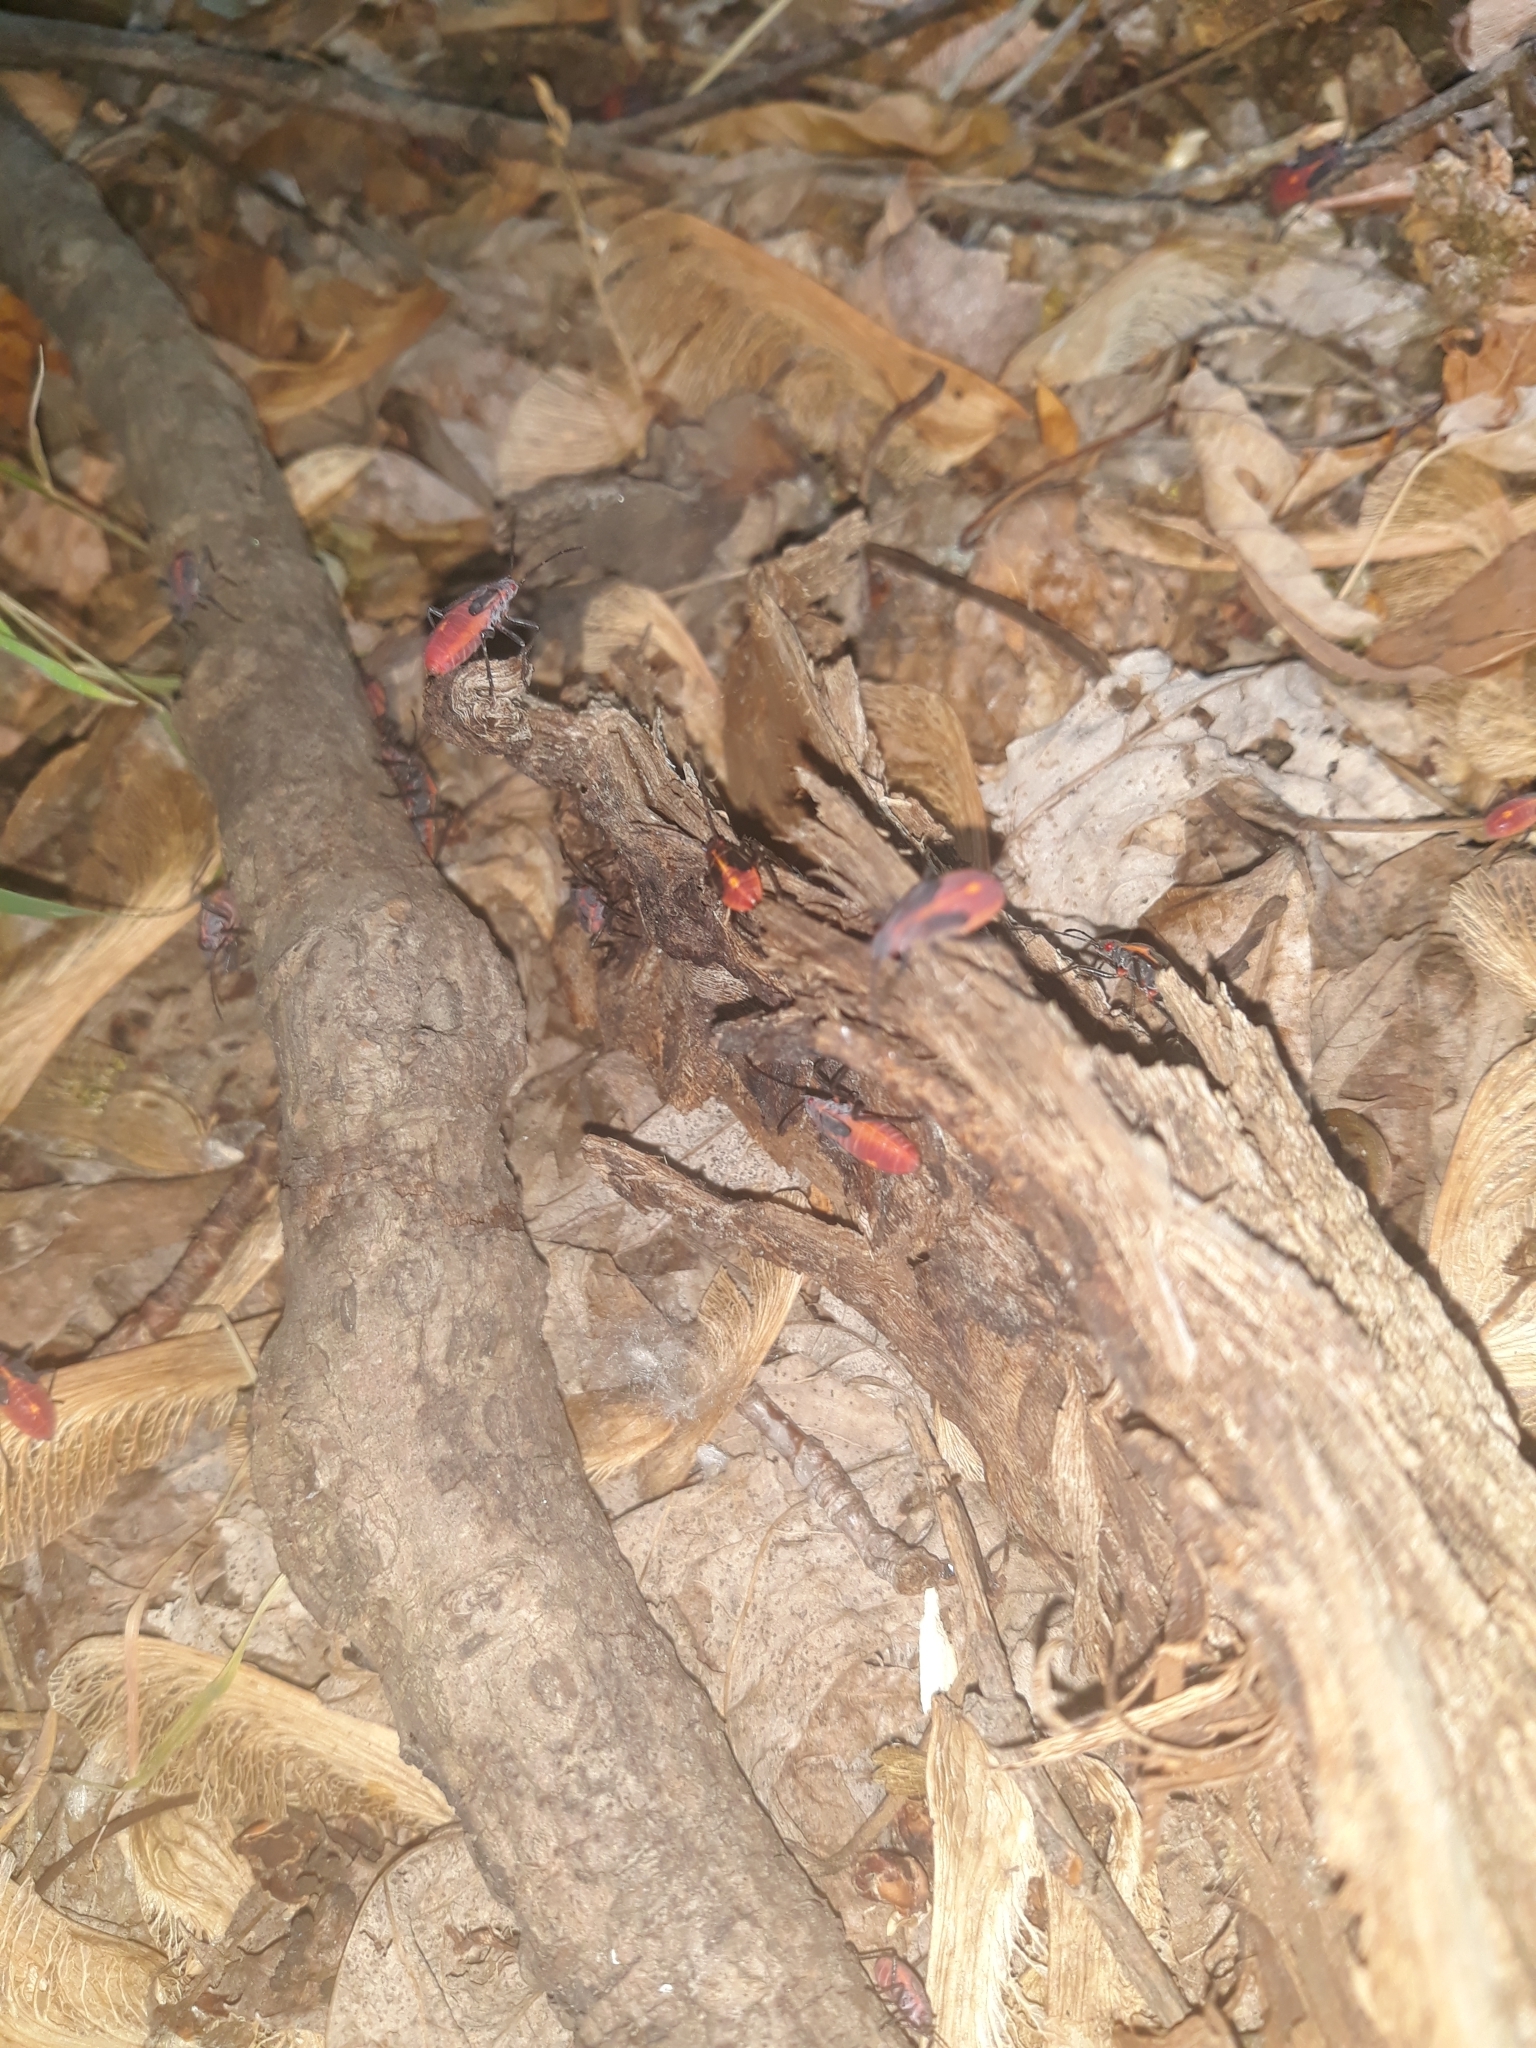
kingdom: Animalia
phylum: Arthropoda
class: Insecta
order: Hemiptera
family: Rhopalidae
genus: Boisea
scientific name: Boisea trivittata
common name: Boxelder bug
